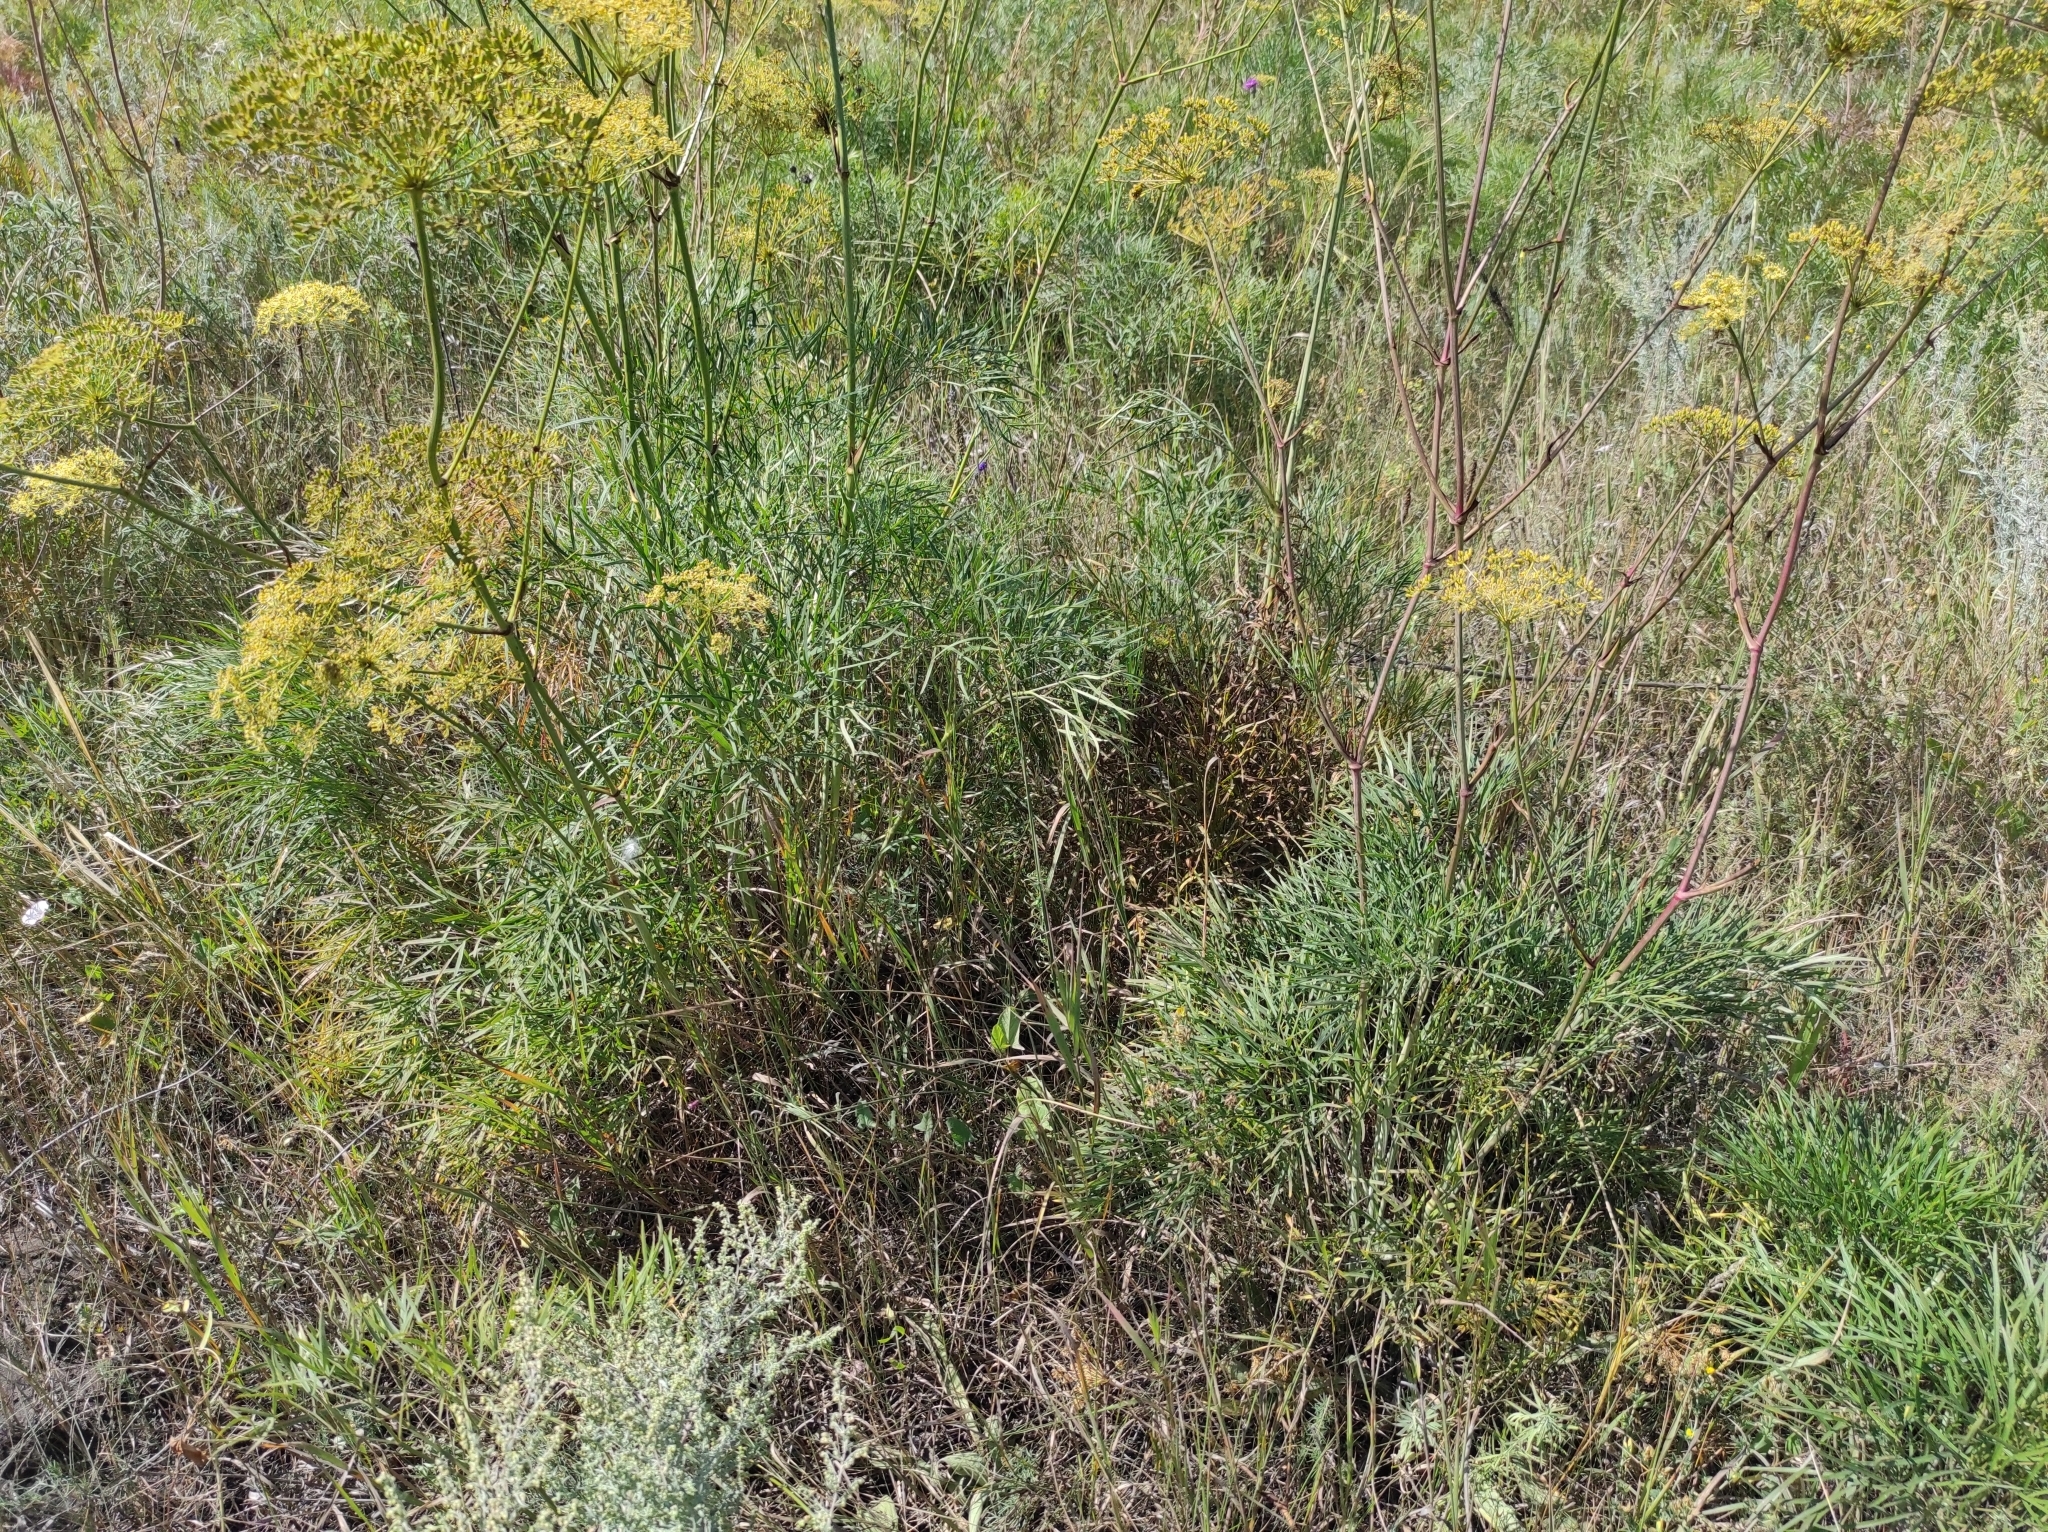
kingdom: Plantae
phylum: Tracheophyta
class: Magnoliopsida
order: Apiales
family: Apiaceae
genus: Peucedanum
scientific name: Peucedanum morisonii
